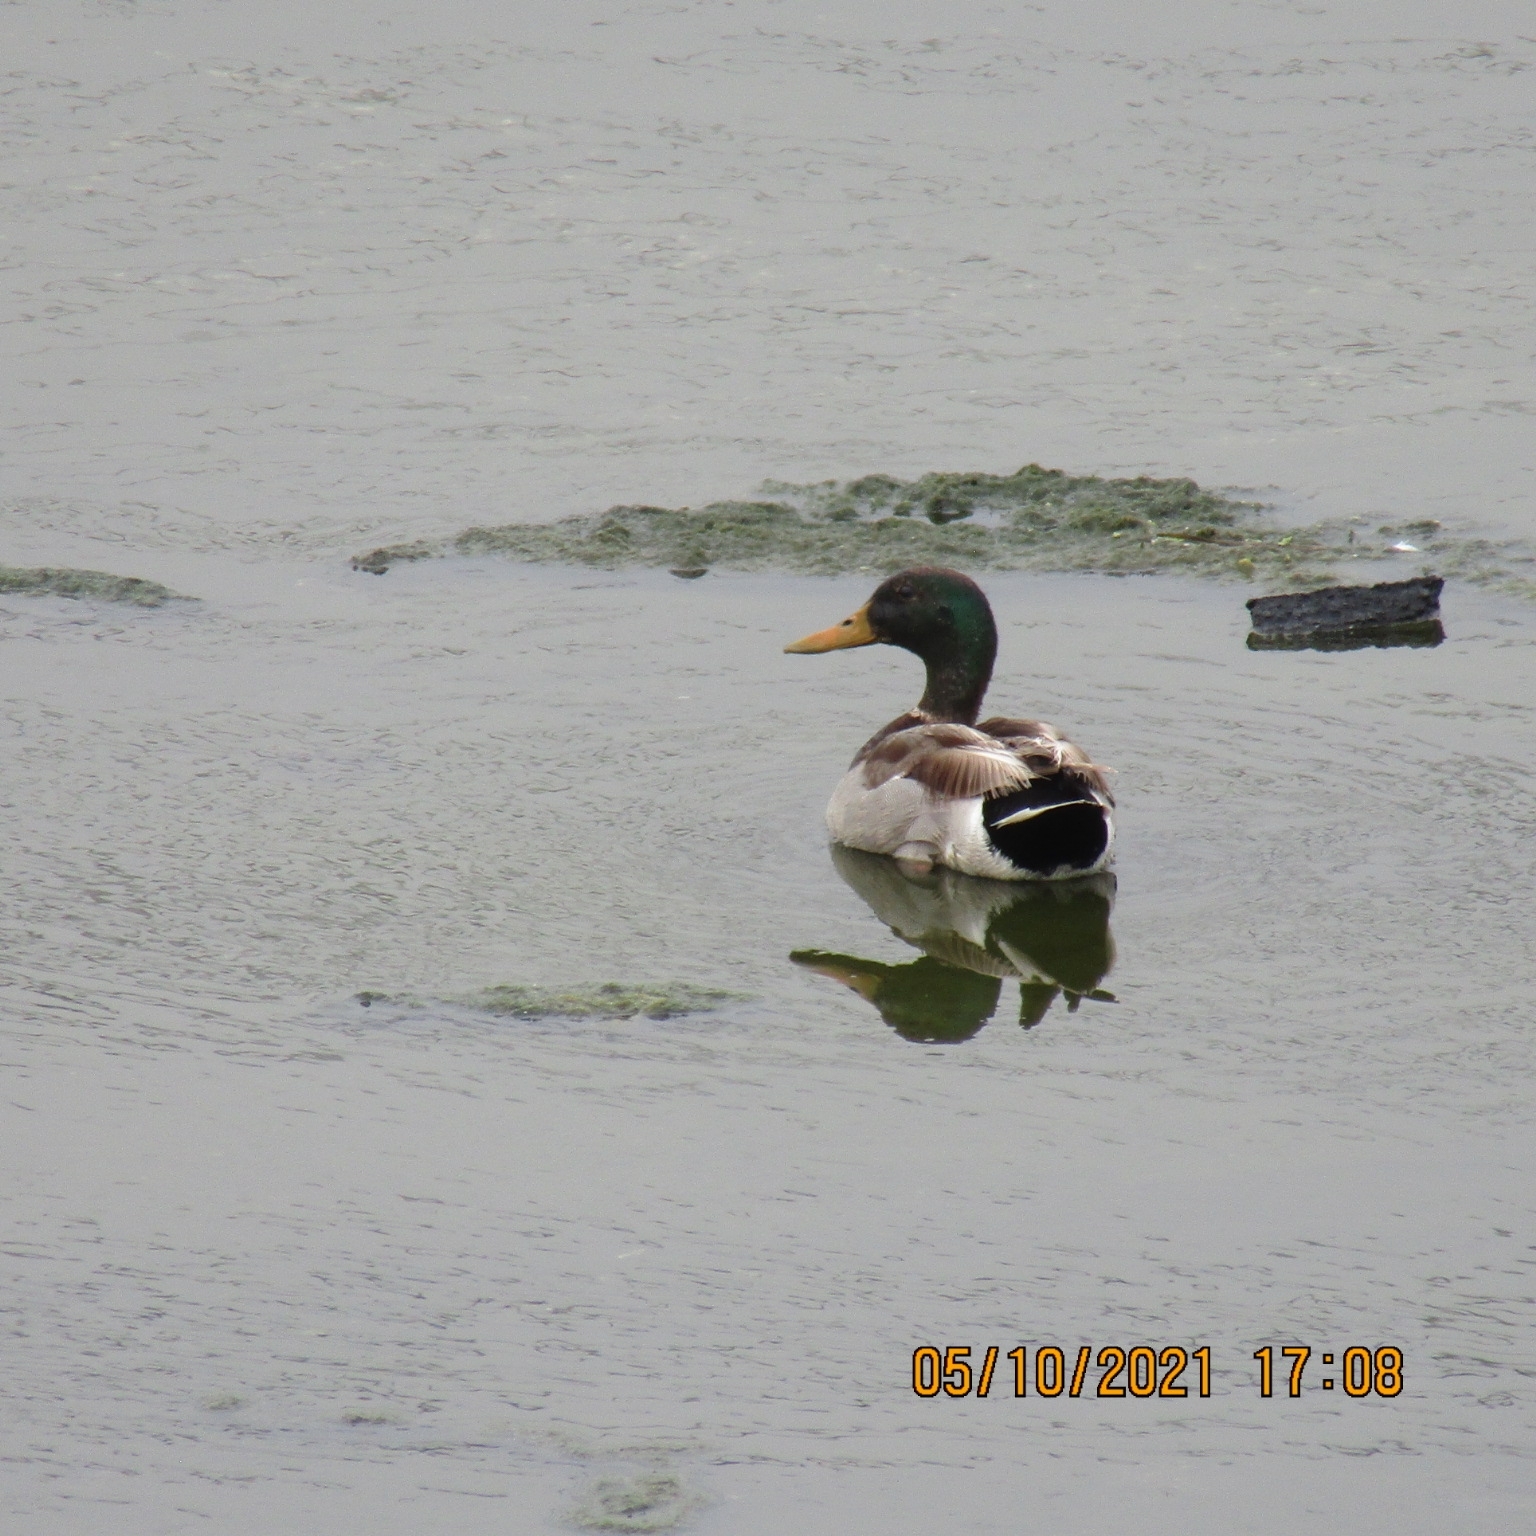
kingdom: Animalia
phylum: Chordata
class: Aves
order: Anseriformes
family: Anatidae
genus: Anas
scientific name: Anas platyrhynchos
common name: Mallard
